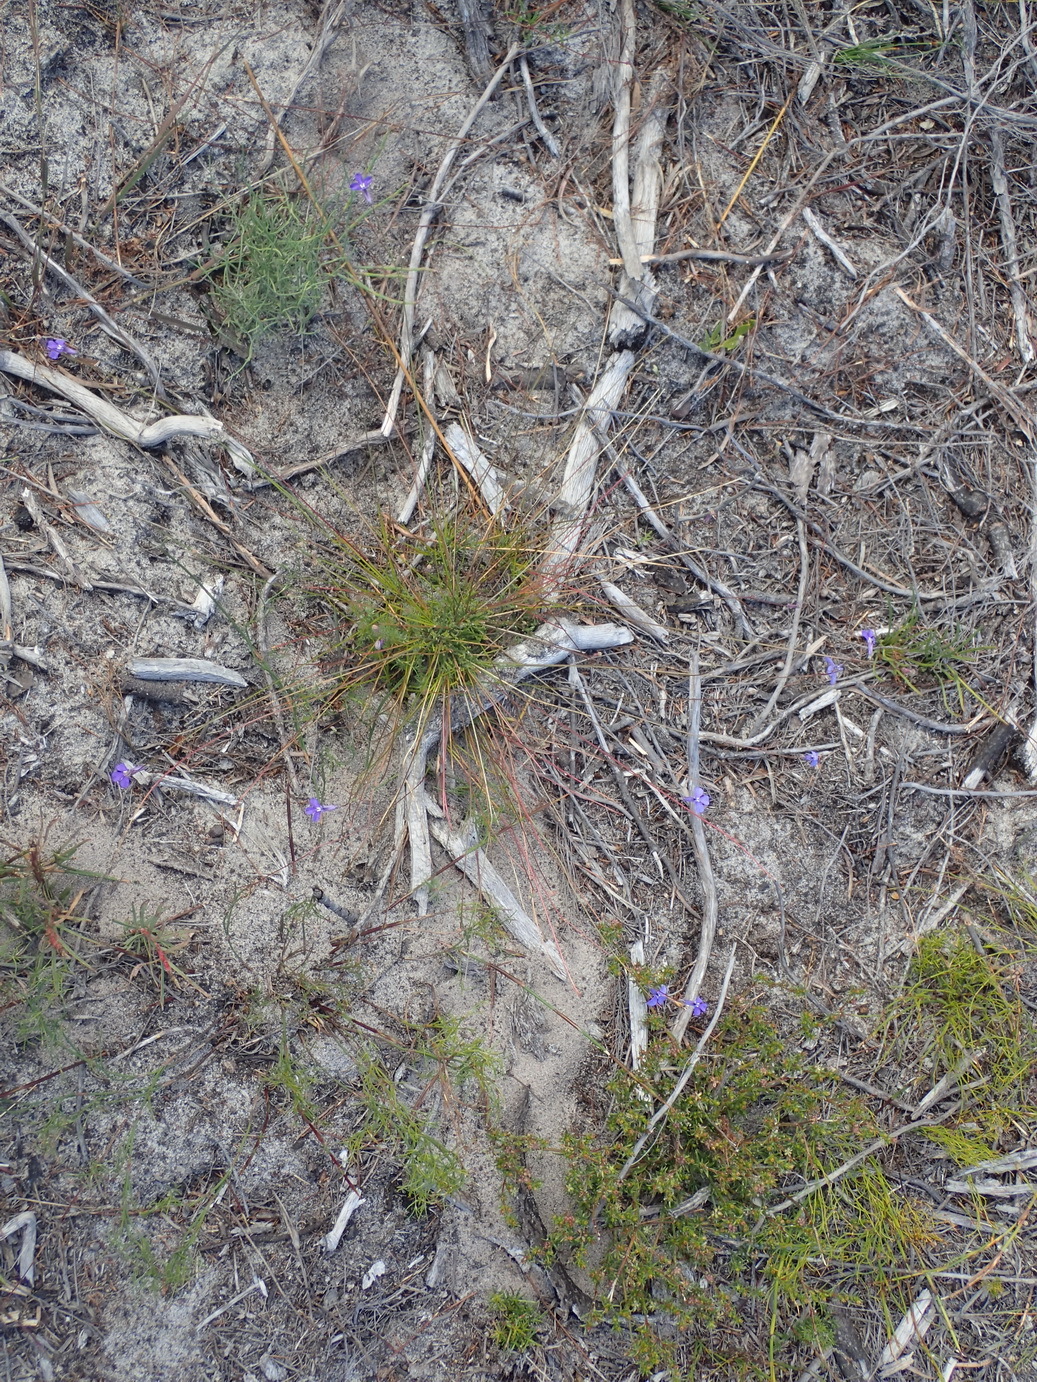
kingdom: Plantae
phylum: Tracheophyta
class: Magnoliopsida
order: Asterales
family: Campanulaceae
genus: Lobelia
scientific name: Lobelia tomentosa
